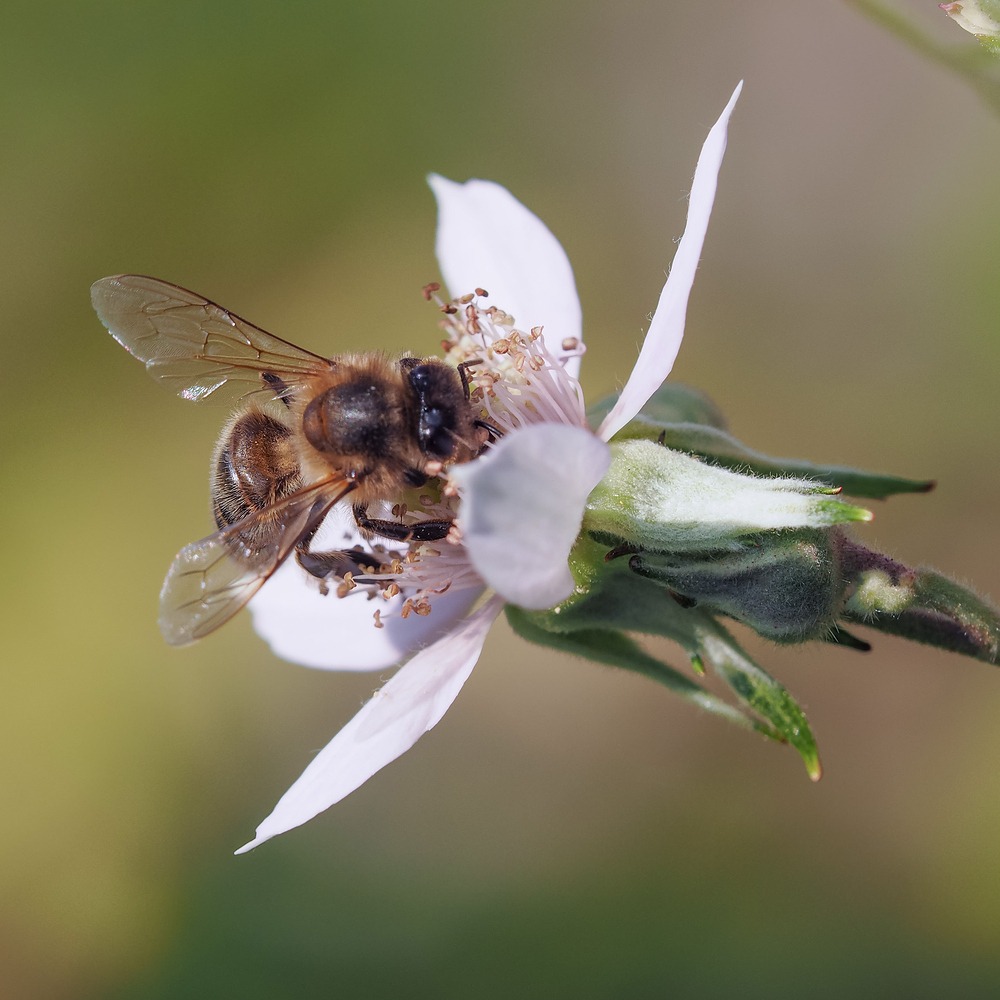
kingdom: Animalia
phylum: Arthropoda
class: Insecta
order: Hymenoptera
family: Apidae
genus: Apis
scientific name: Apis mellifera
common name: Honey bee
